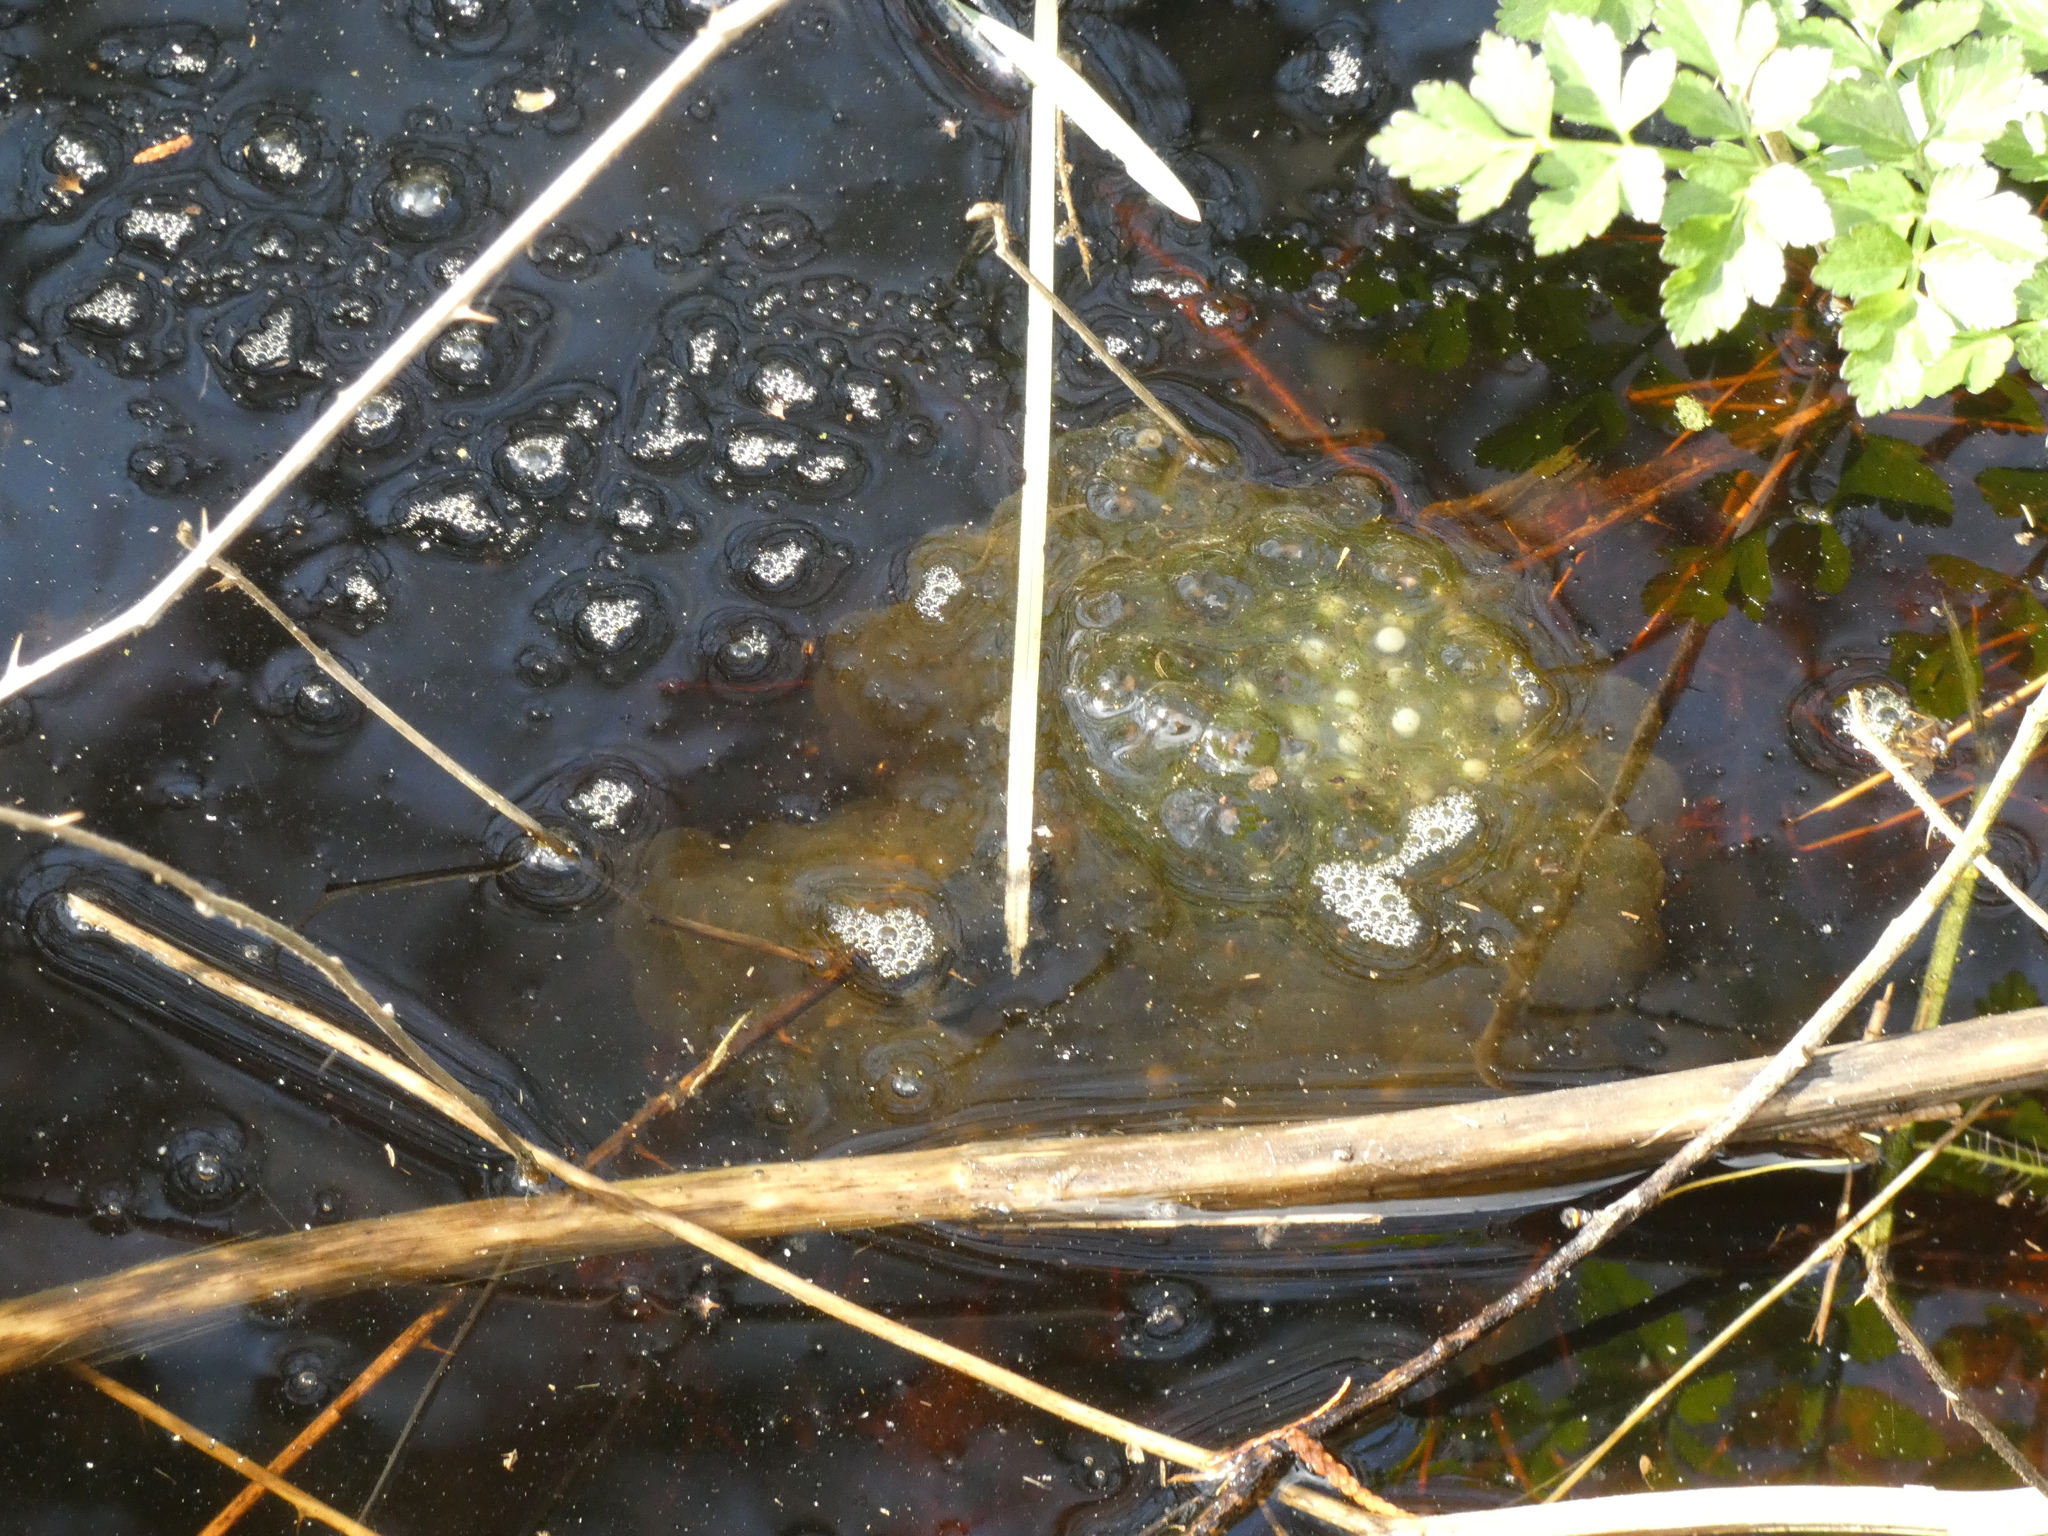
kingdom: Animalia
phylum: Chordata
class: Amphibia
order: Anura
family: Ranidae
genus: Rana
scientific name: Rana dalmatina
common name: Agile frog
